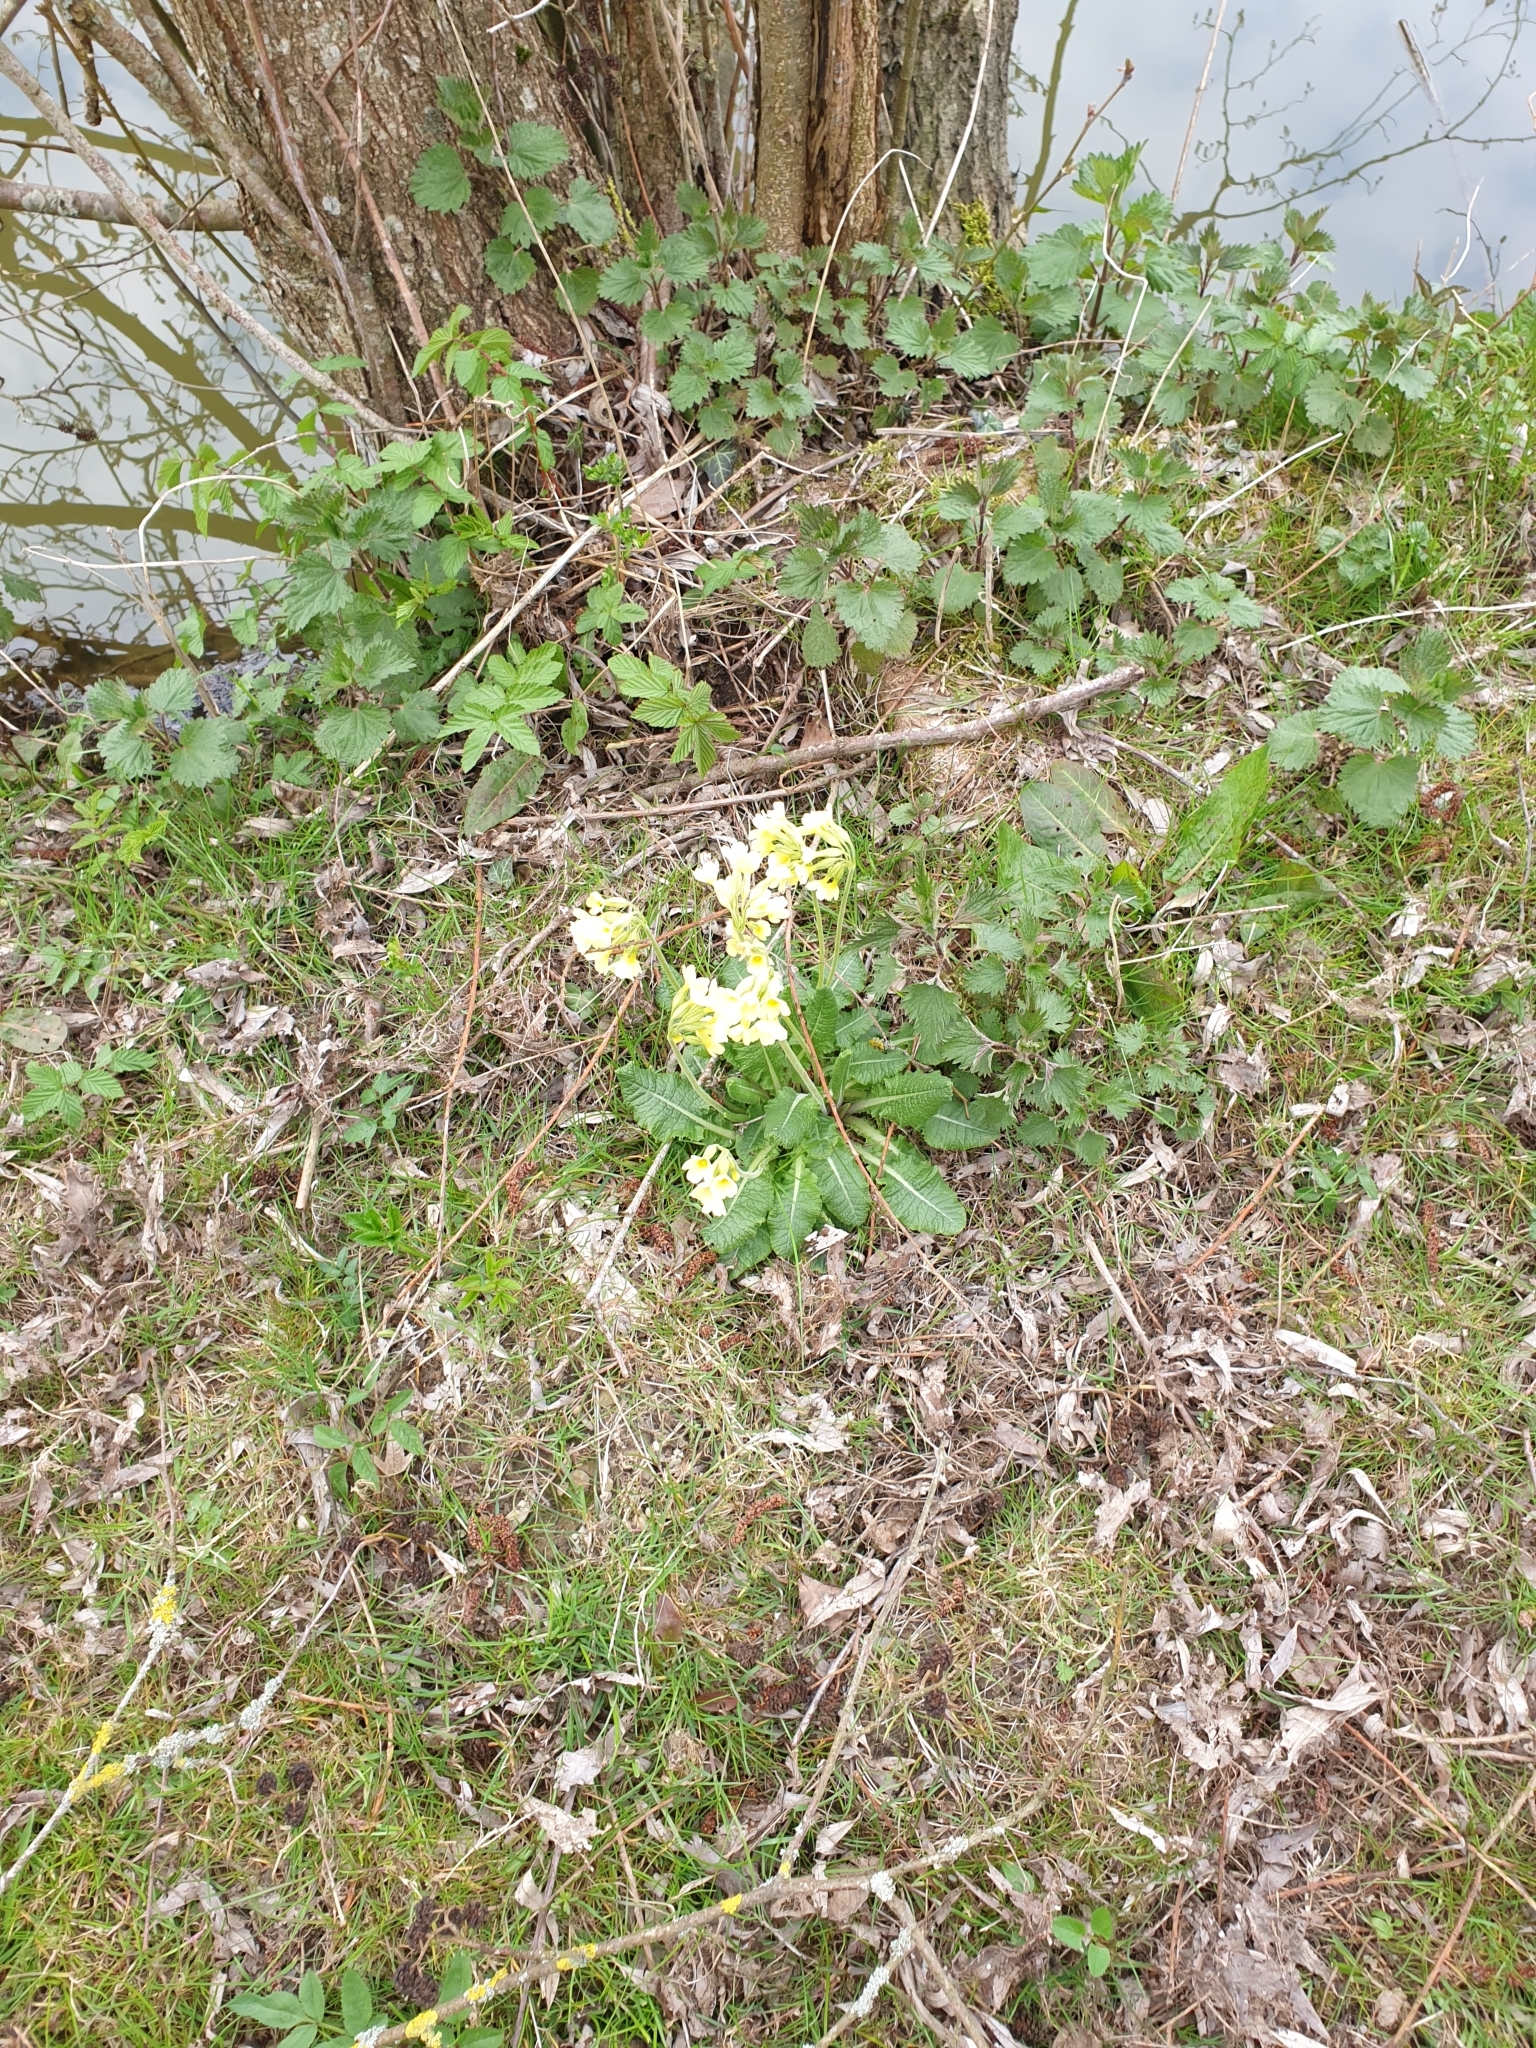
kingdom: Plantae
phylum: Tracheophyta
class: Magnoliopsida
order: Ericales
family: Primulaceae
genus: Primula
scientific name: Primula elatior
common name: Oxlip
